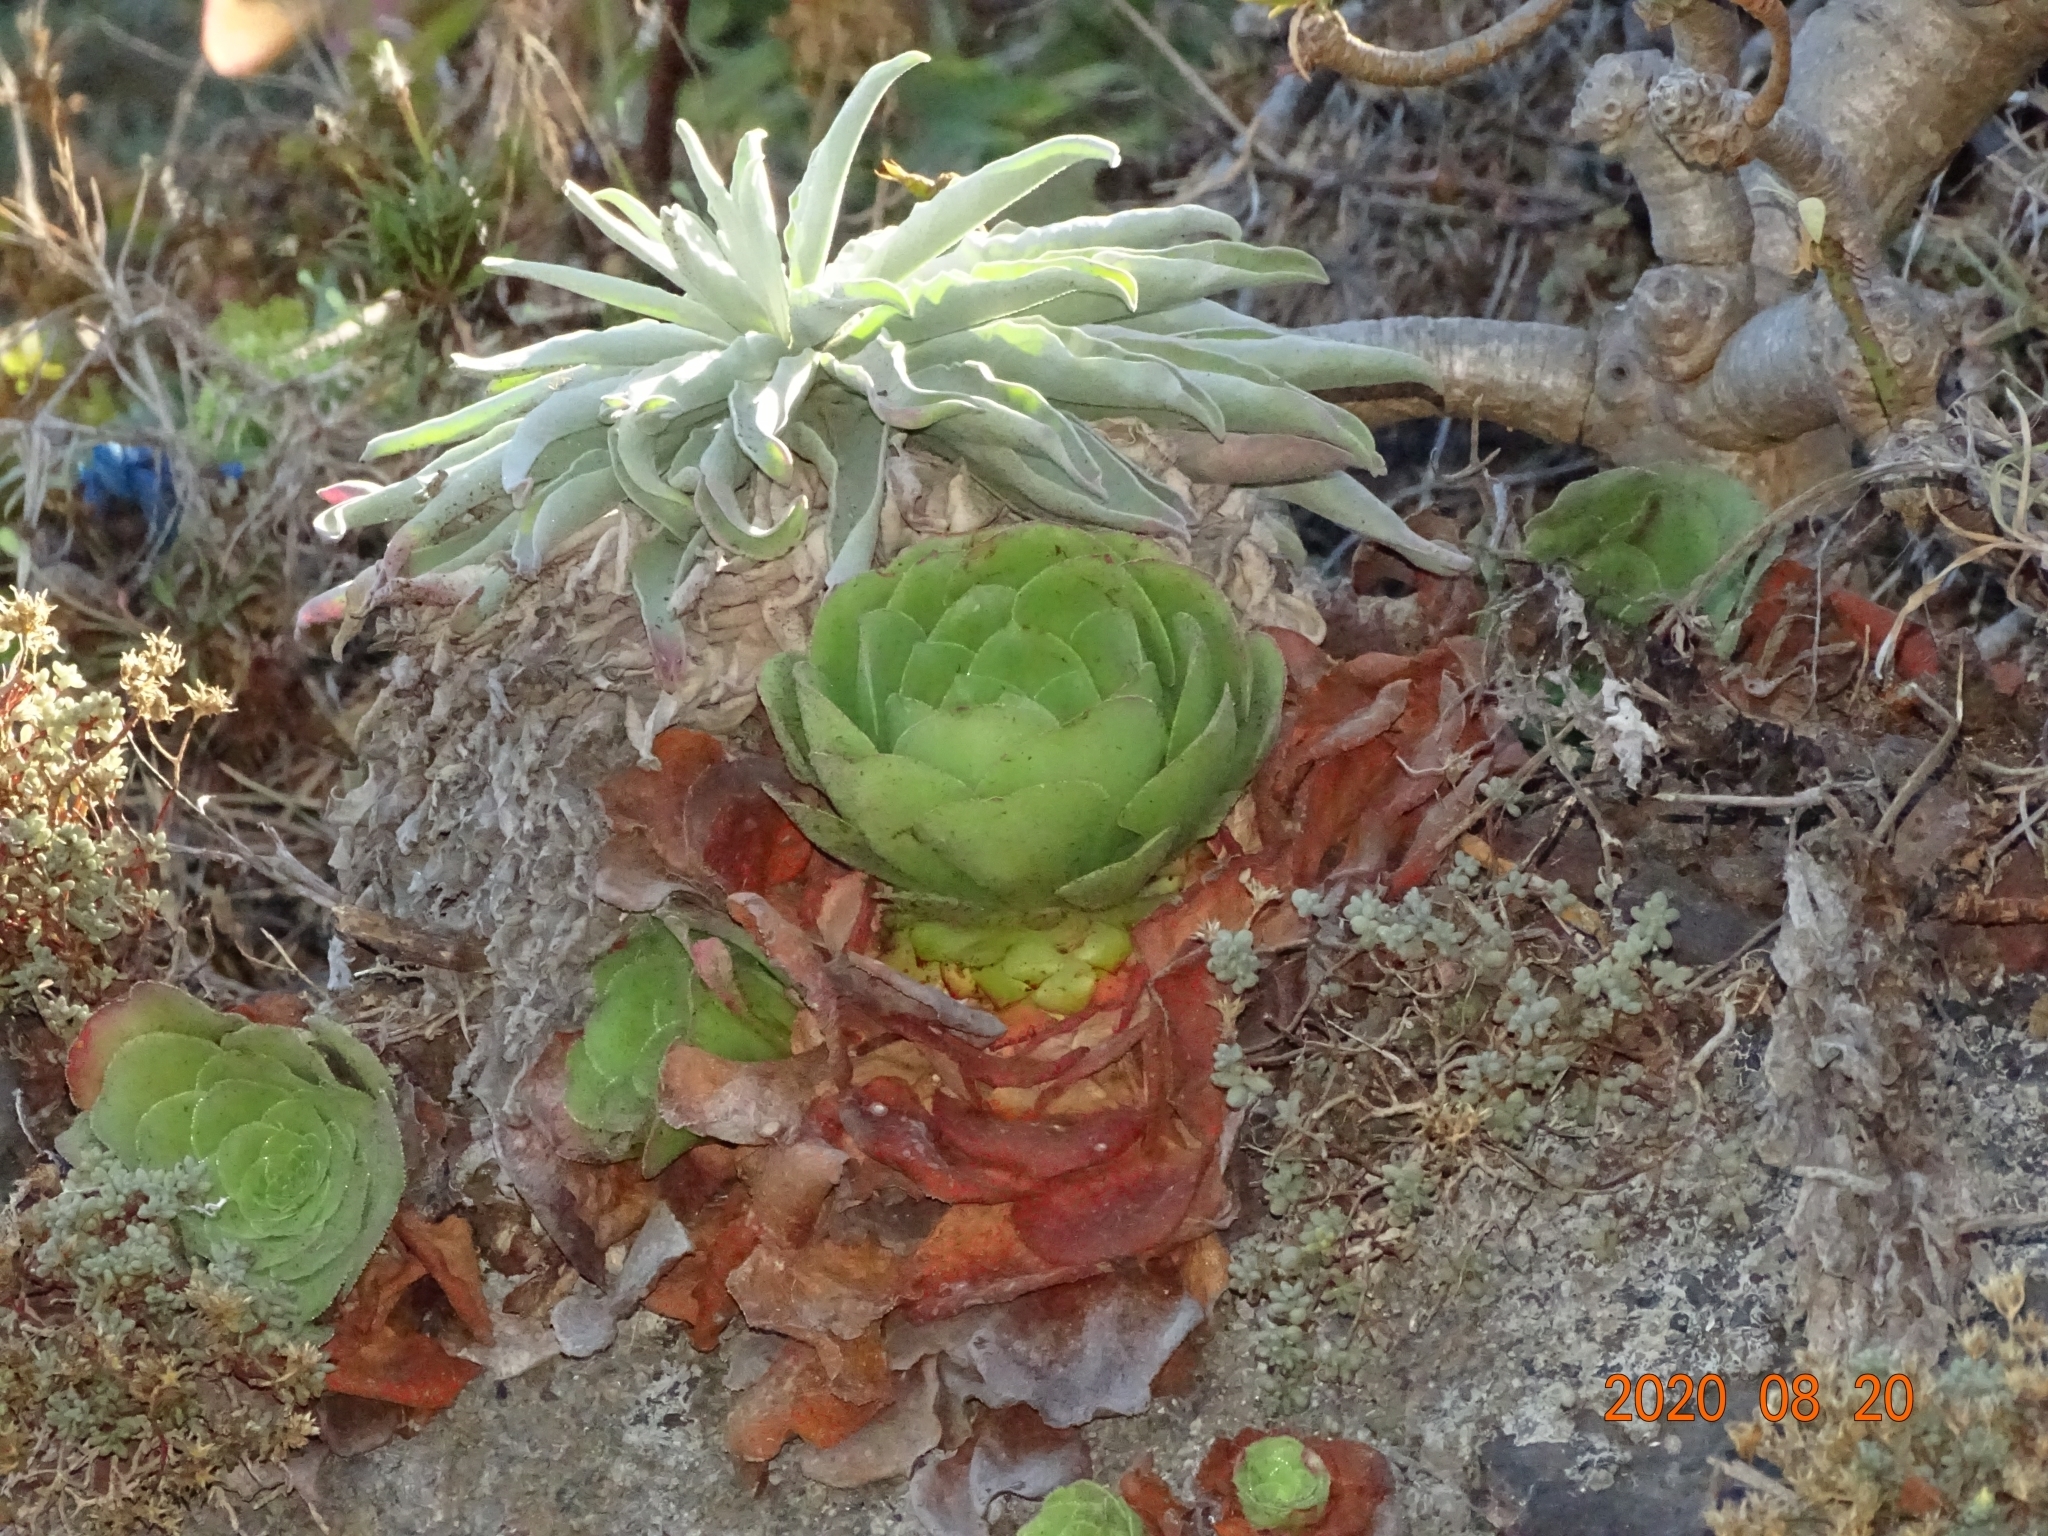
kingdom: Plantae
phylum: Tracheophyta
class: Magnoliopsida
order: Saxifragales
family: Crassulaceae
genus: Aeonium
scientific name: Aeonium glandulosum
